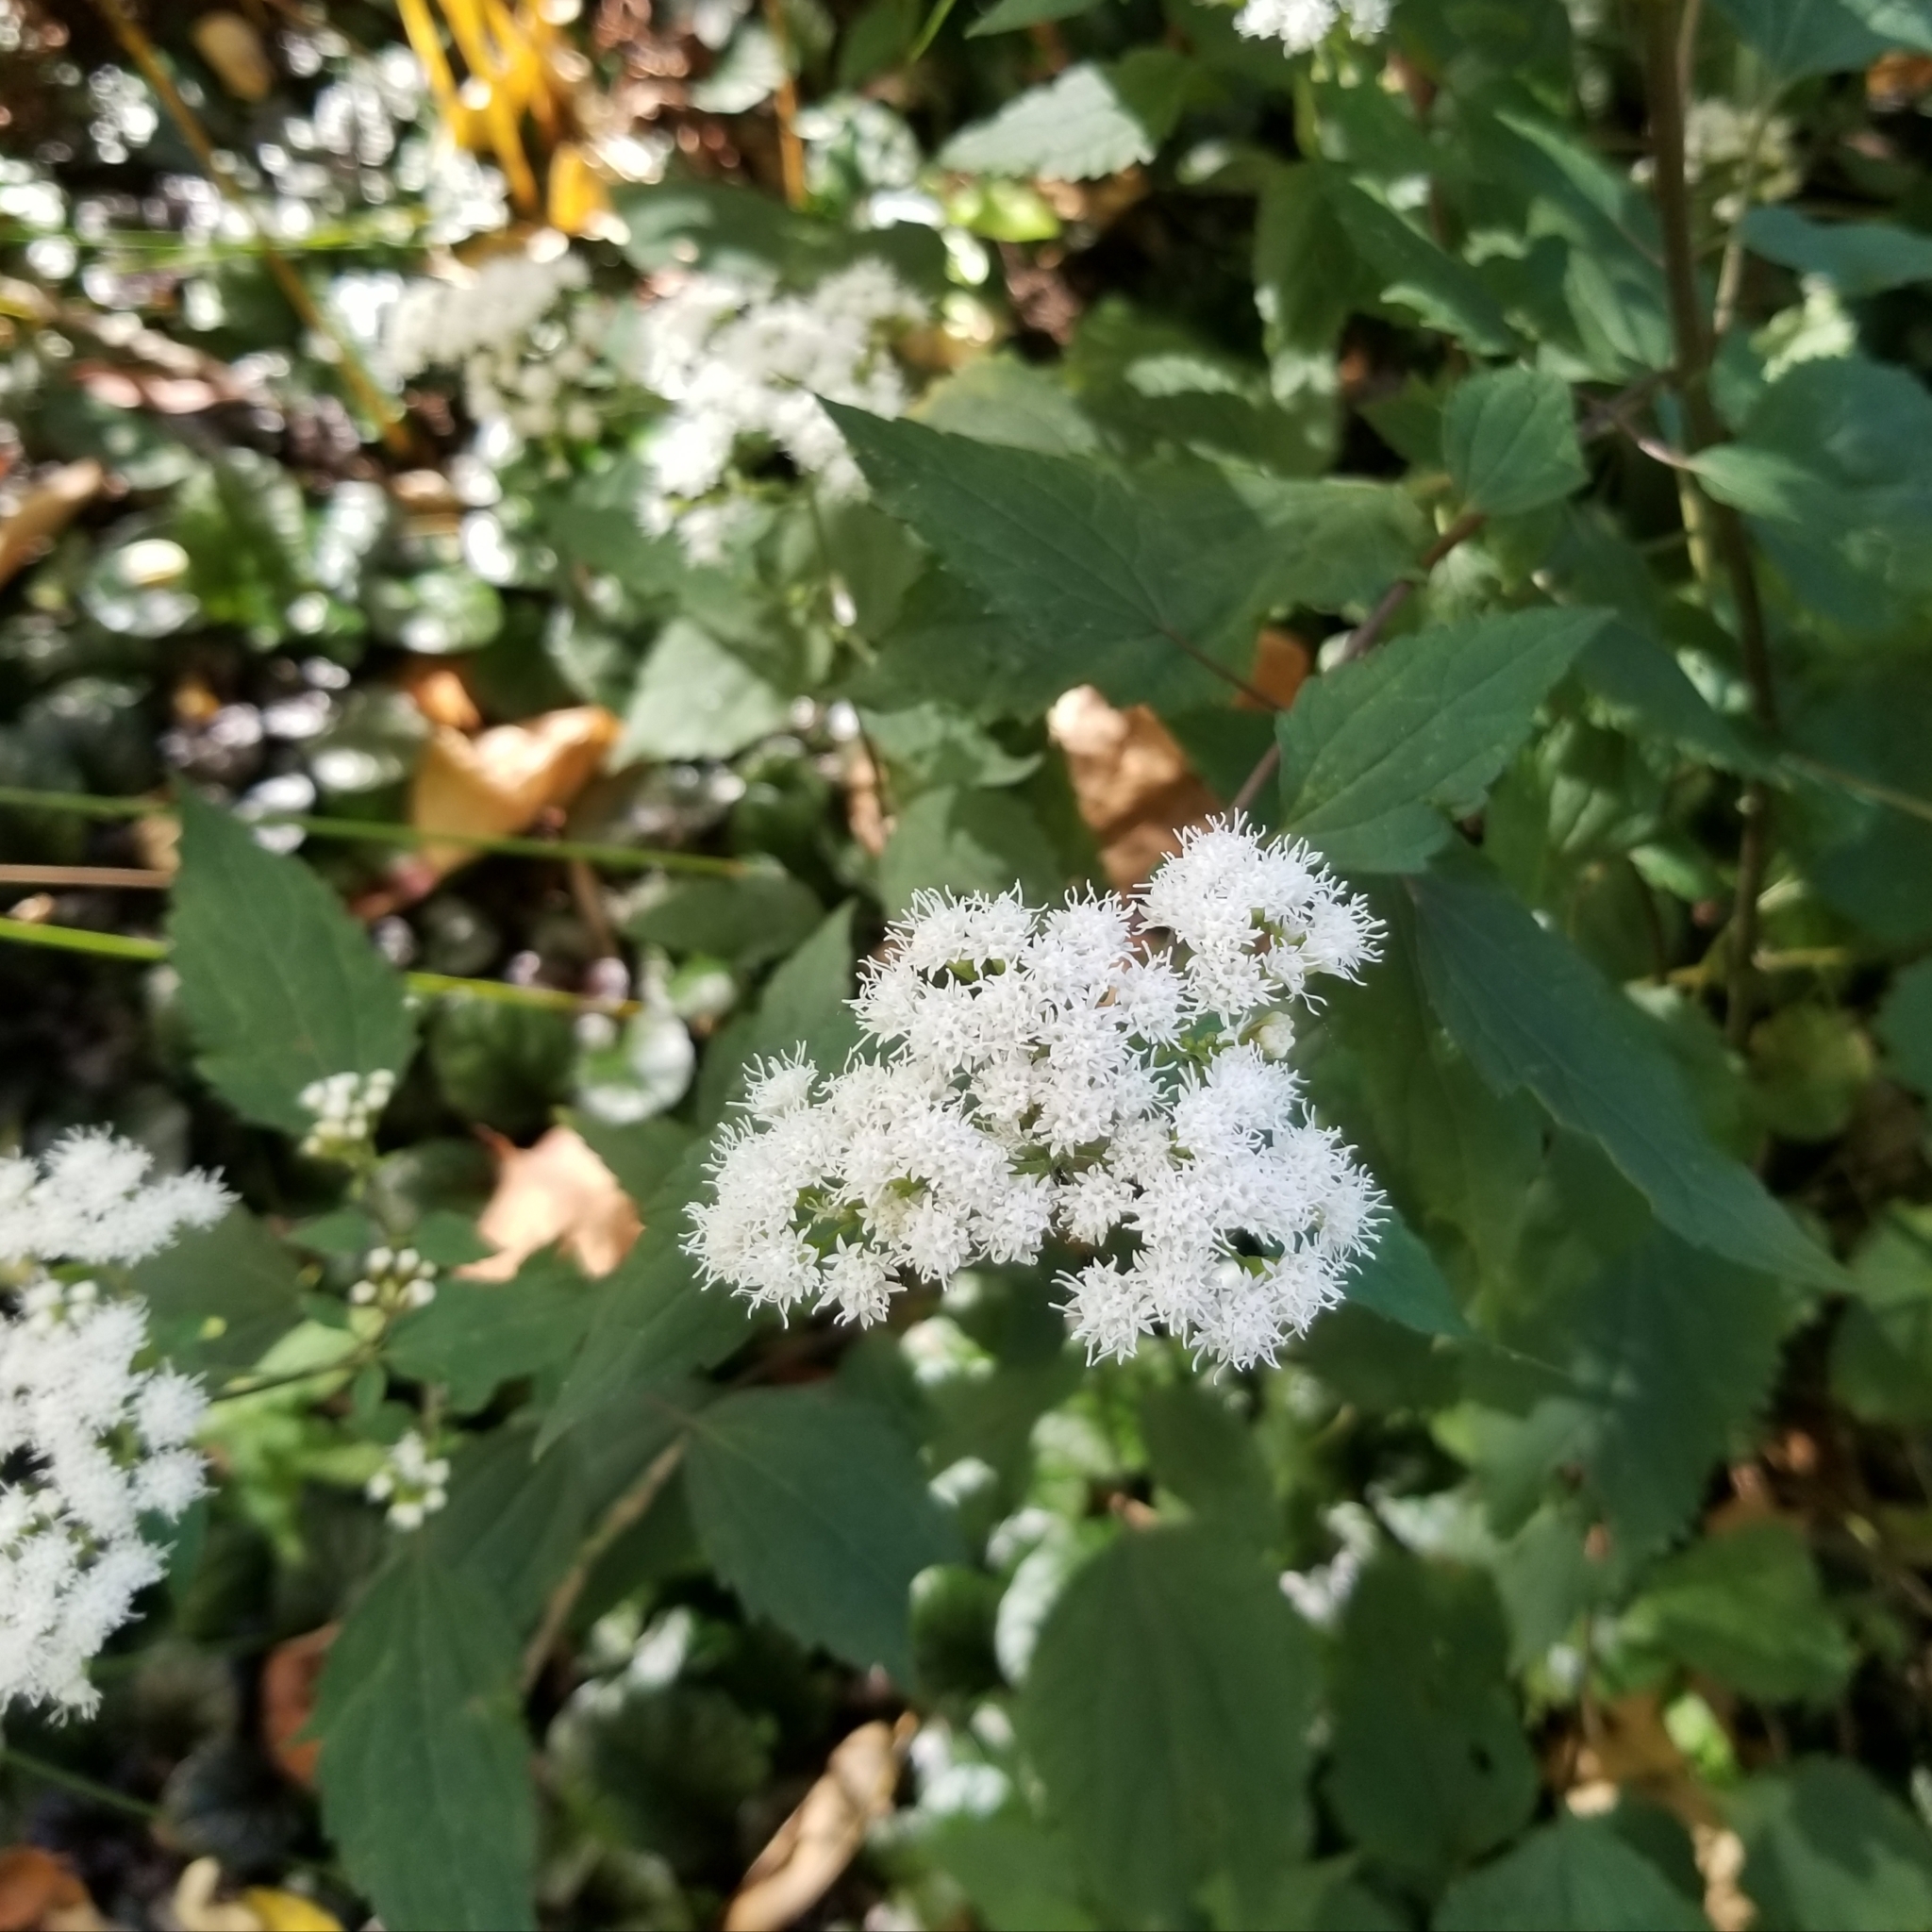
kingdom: Plantae
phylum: Tracheophyta
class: Magnoliopsida
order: Asterales
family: Asteraceae
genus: Ageratina
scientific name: Ageratina altissima
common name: White snakeroot
